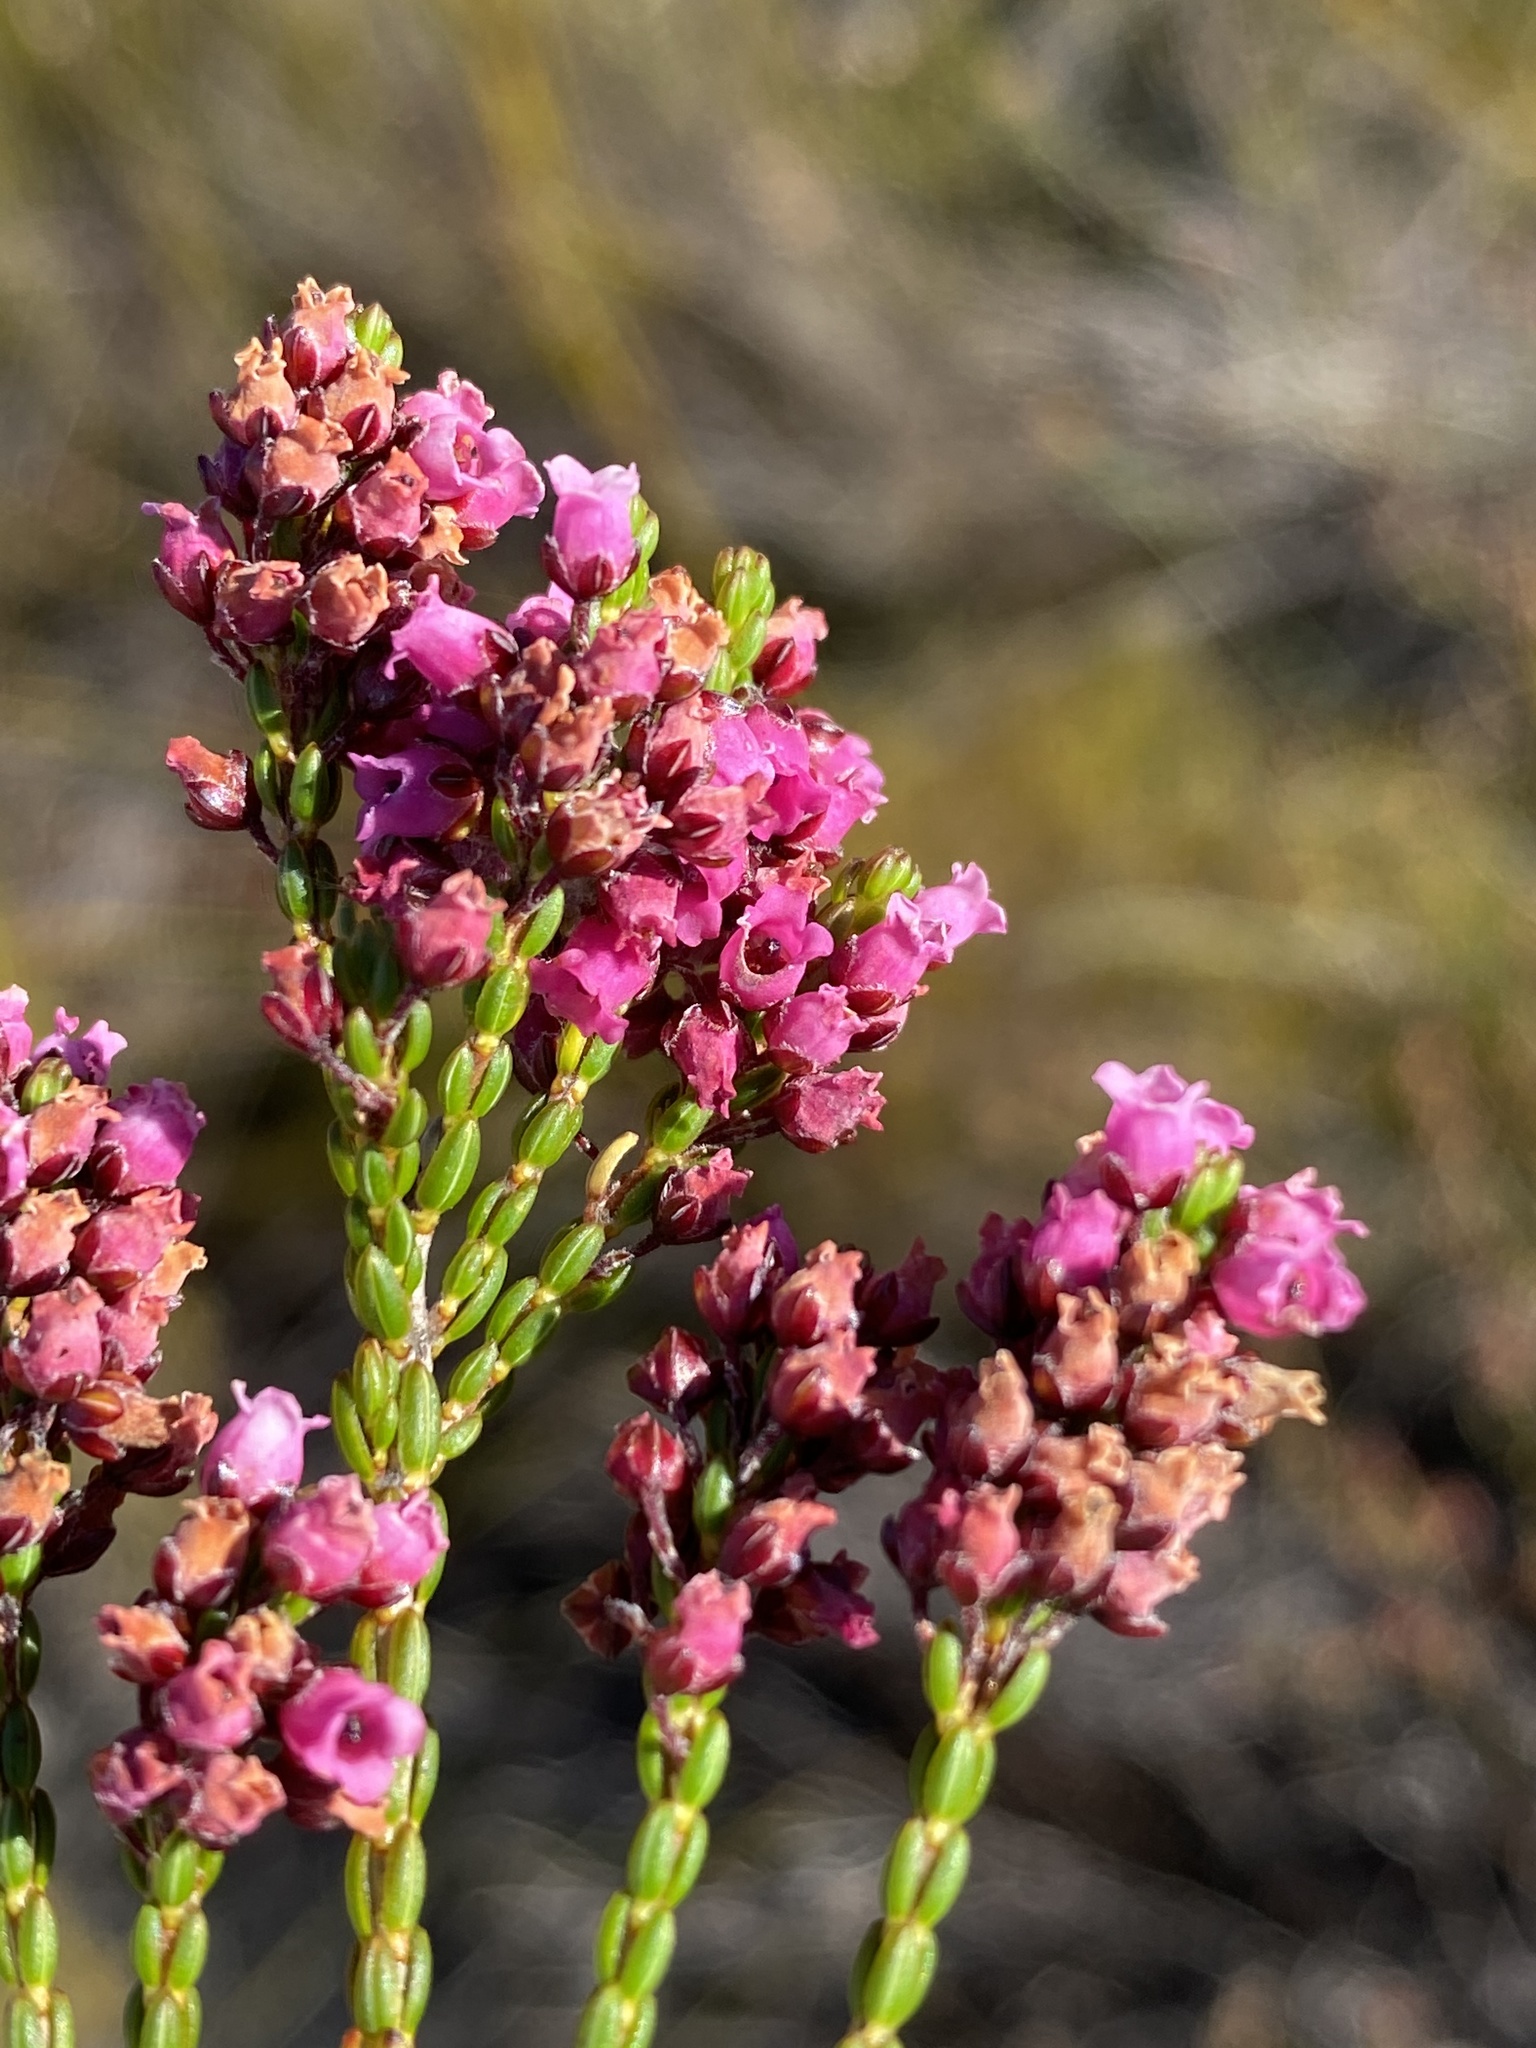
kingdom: Plantae
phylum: Tracheophyta
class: Magnoliopsida
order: Ericales
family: Ericaceae
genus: Erica
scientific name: Erica pulchella
